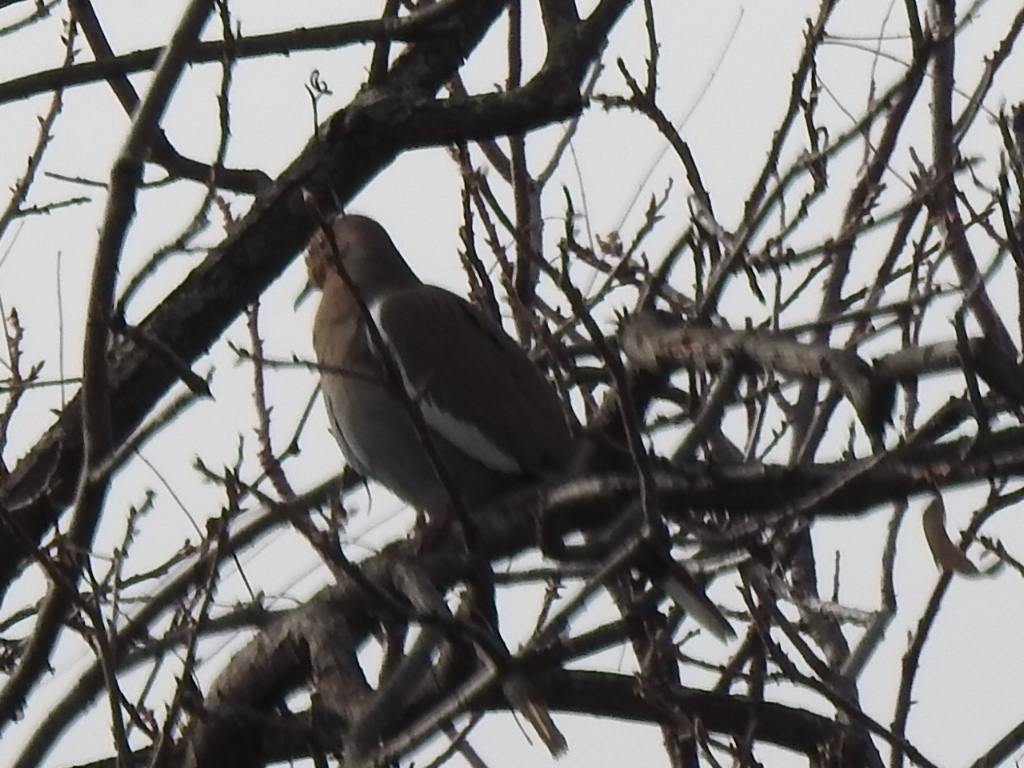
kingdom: Animalia
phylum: Chordata
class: Aves
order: Columbiformes
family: Columbidae
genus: Zenaida
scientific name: Zenaida asiatica
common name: White-winged dove
